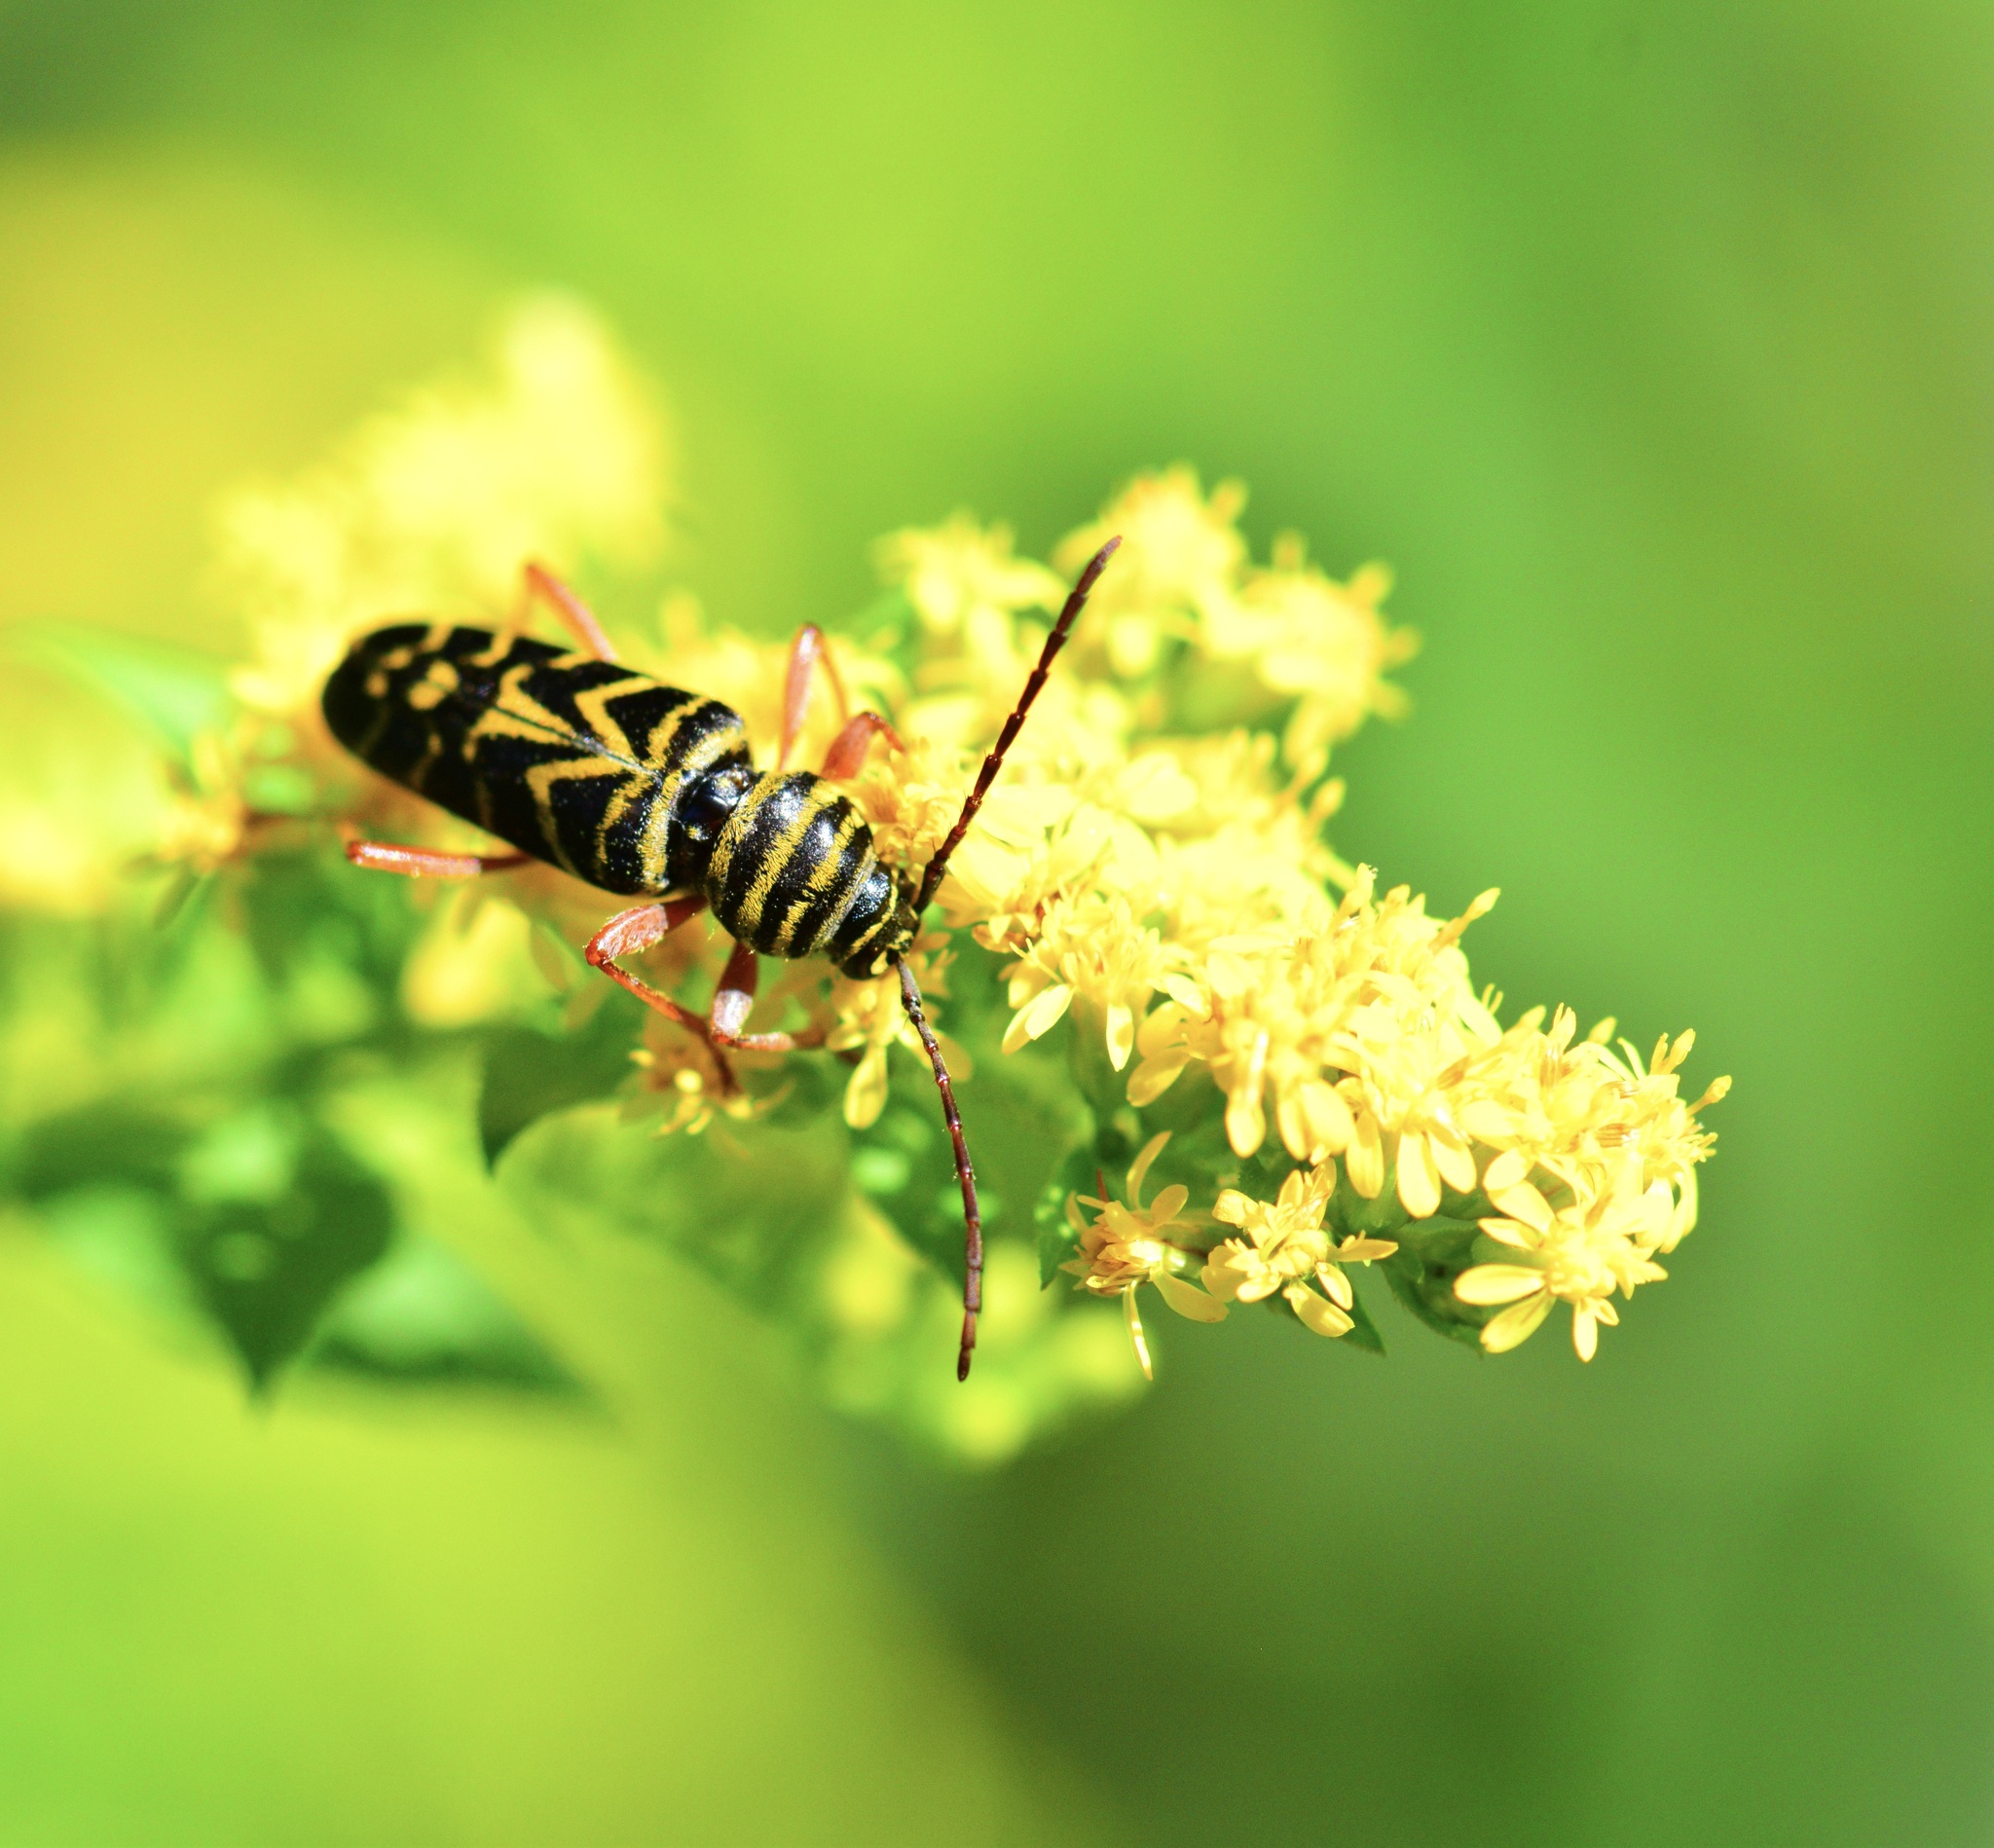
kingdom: Animalia
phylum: Arthropoda
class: Insecta
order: Coleoptera
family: Cerambycidae
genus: Megacyllene
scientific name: Megacyllene robiniae
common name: Locust borer
